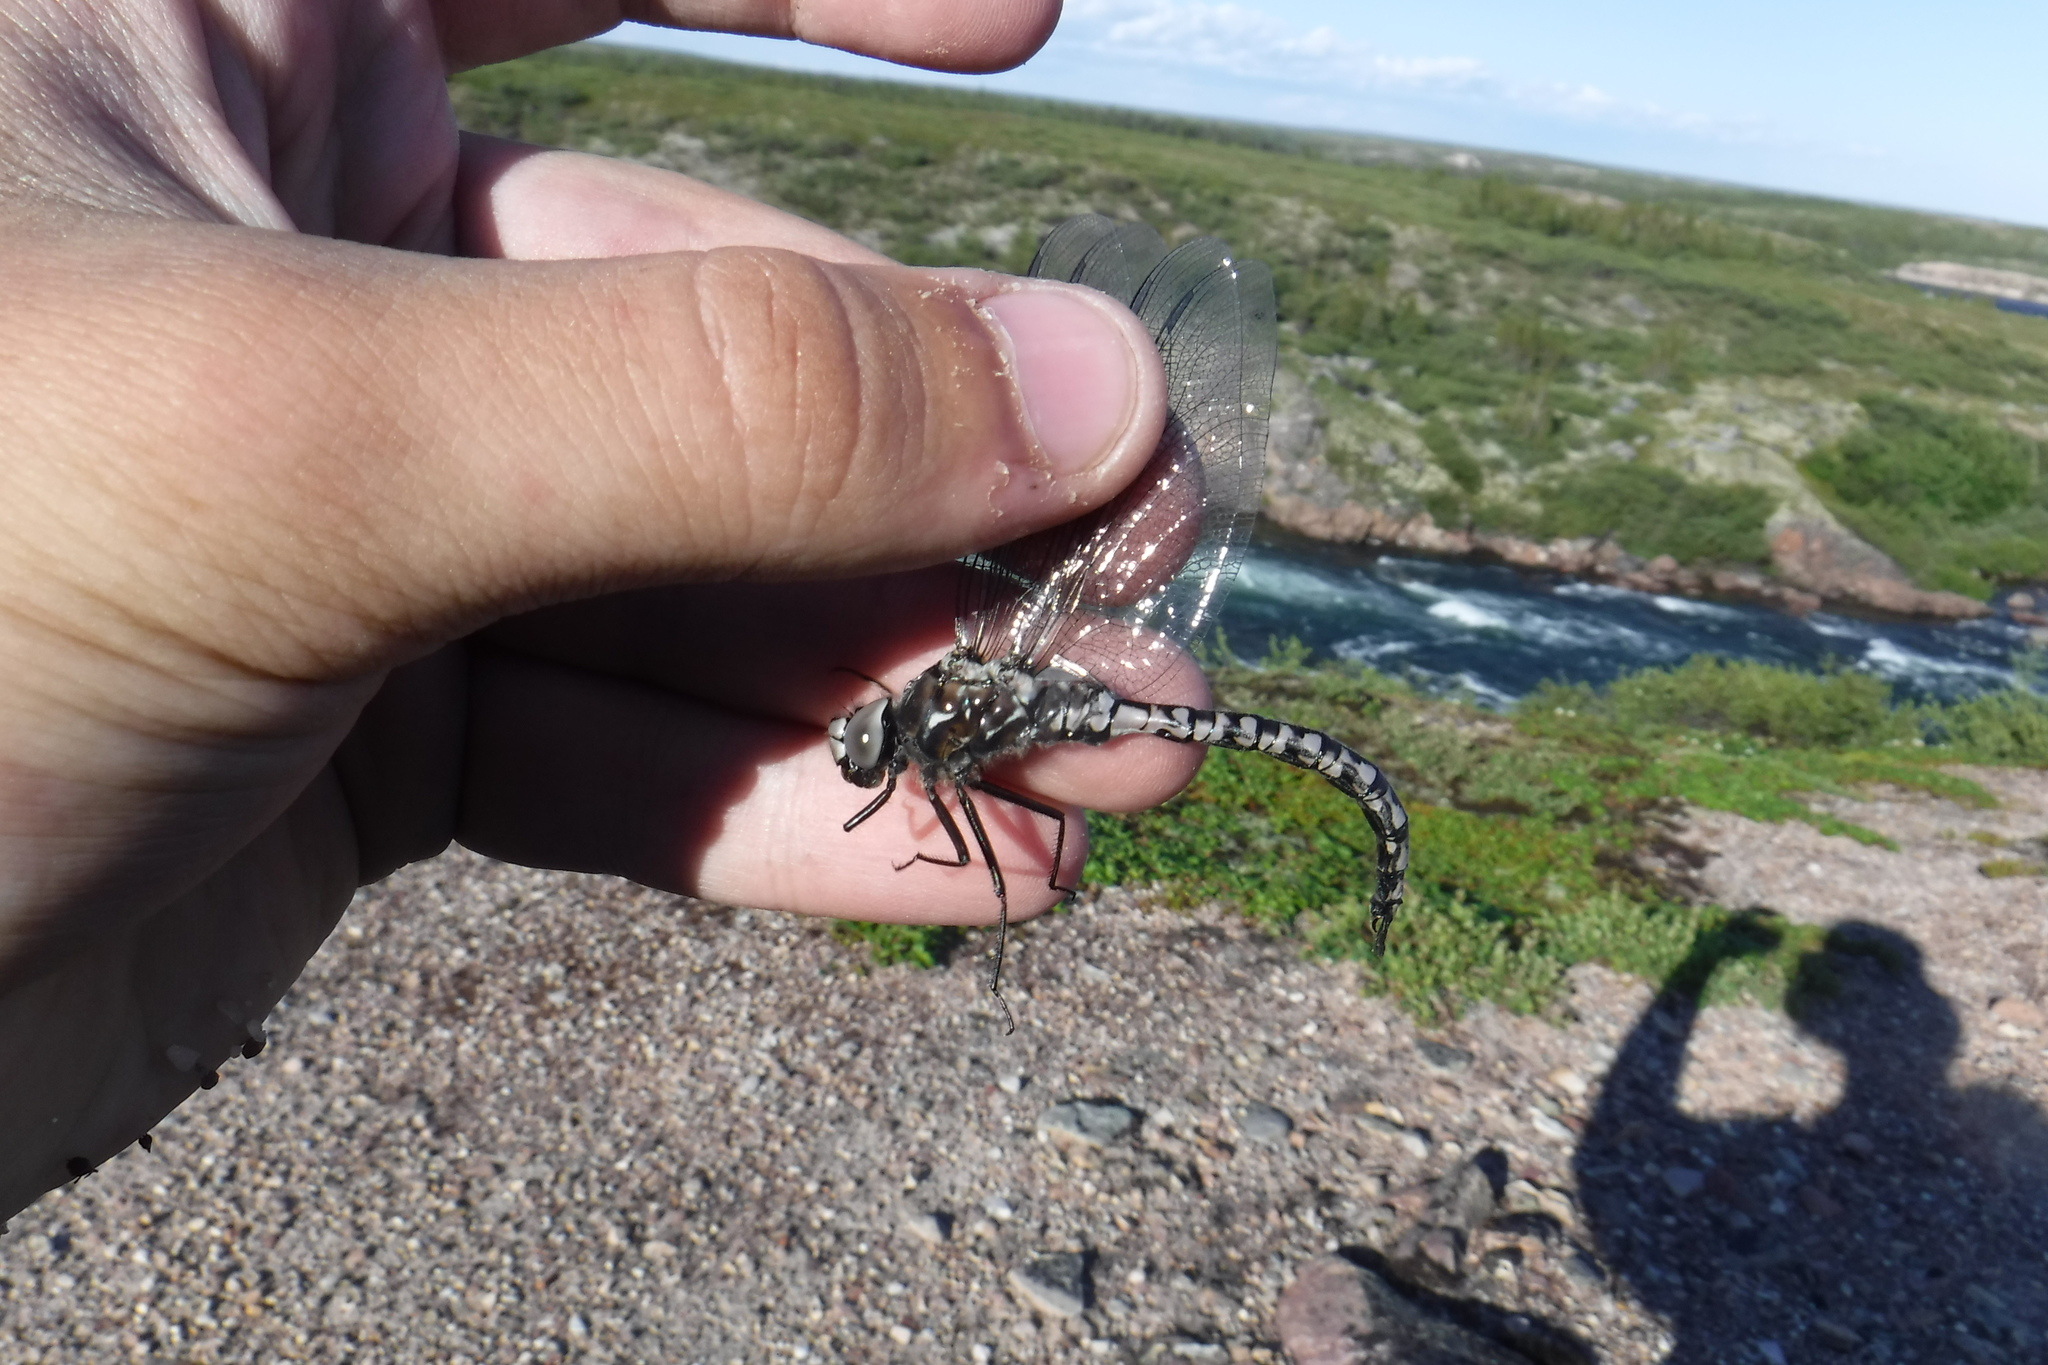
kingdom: Animalia
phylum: Arthropoda
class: Insecta
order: Odonata
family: Aeshnidae
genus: Aeshna
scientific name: Aeshna septentrionalis
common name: Azure darner
